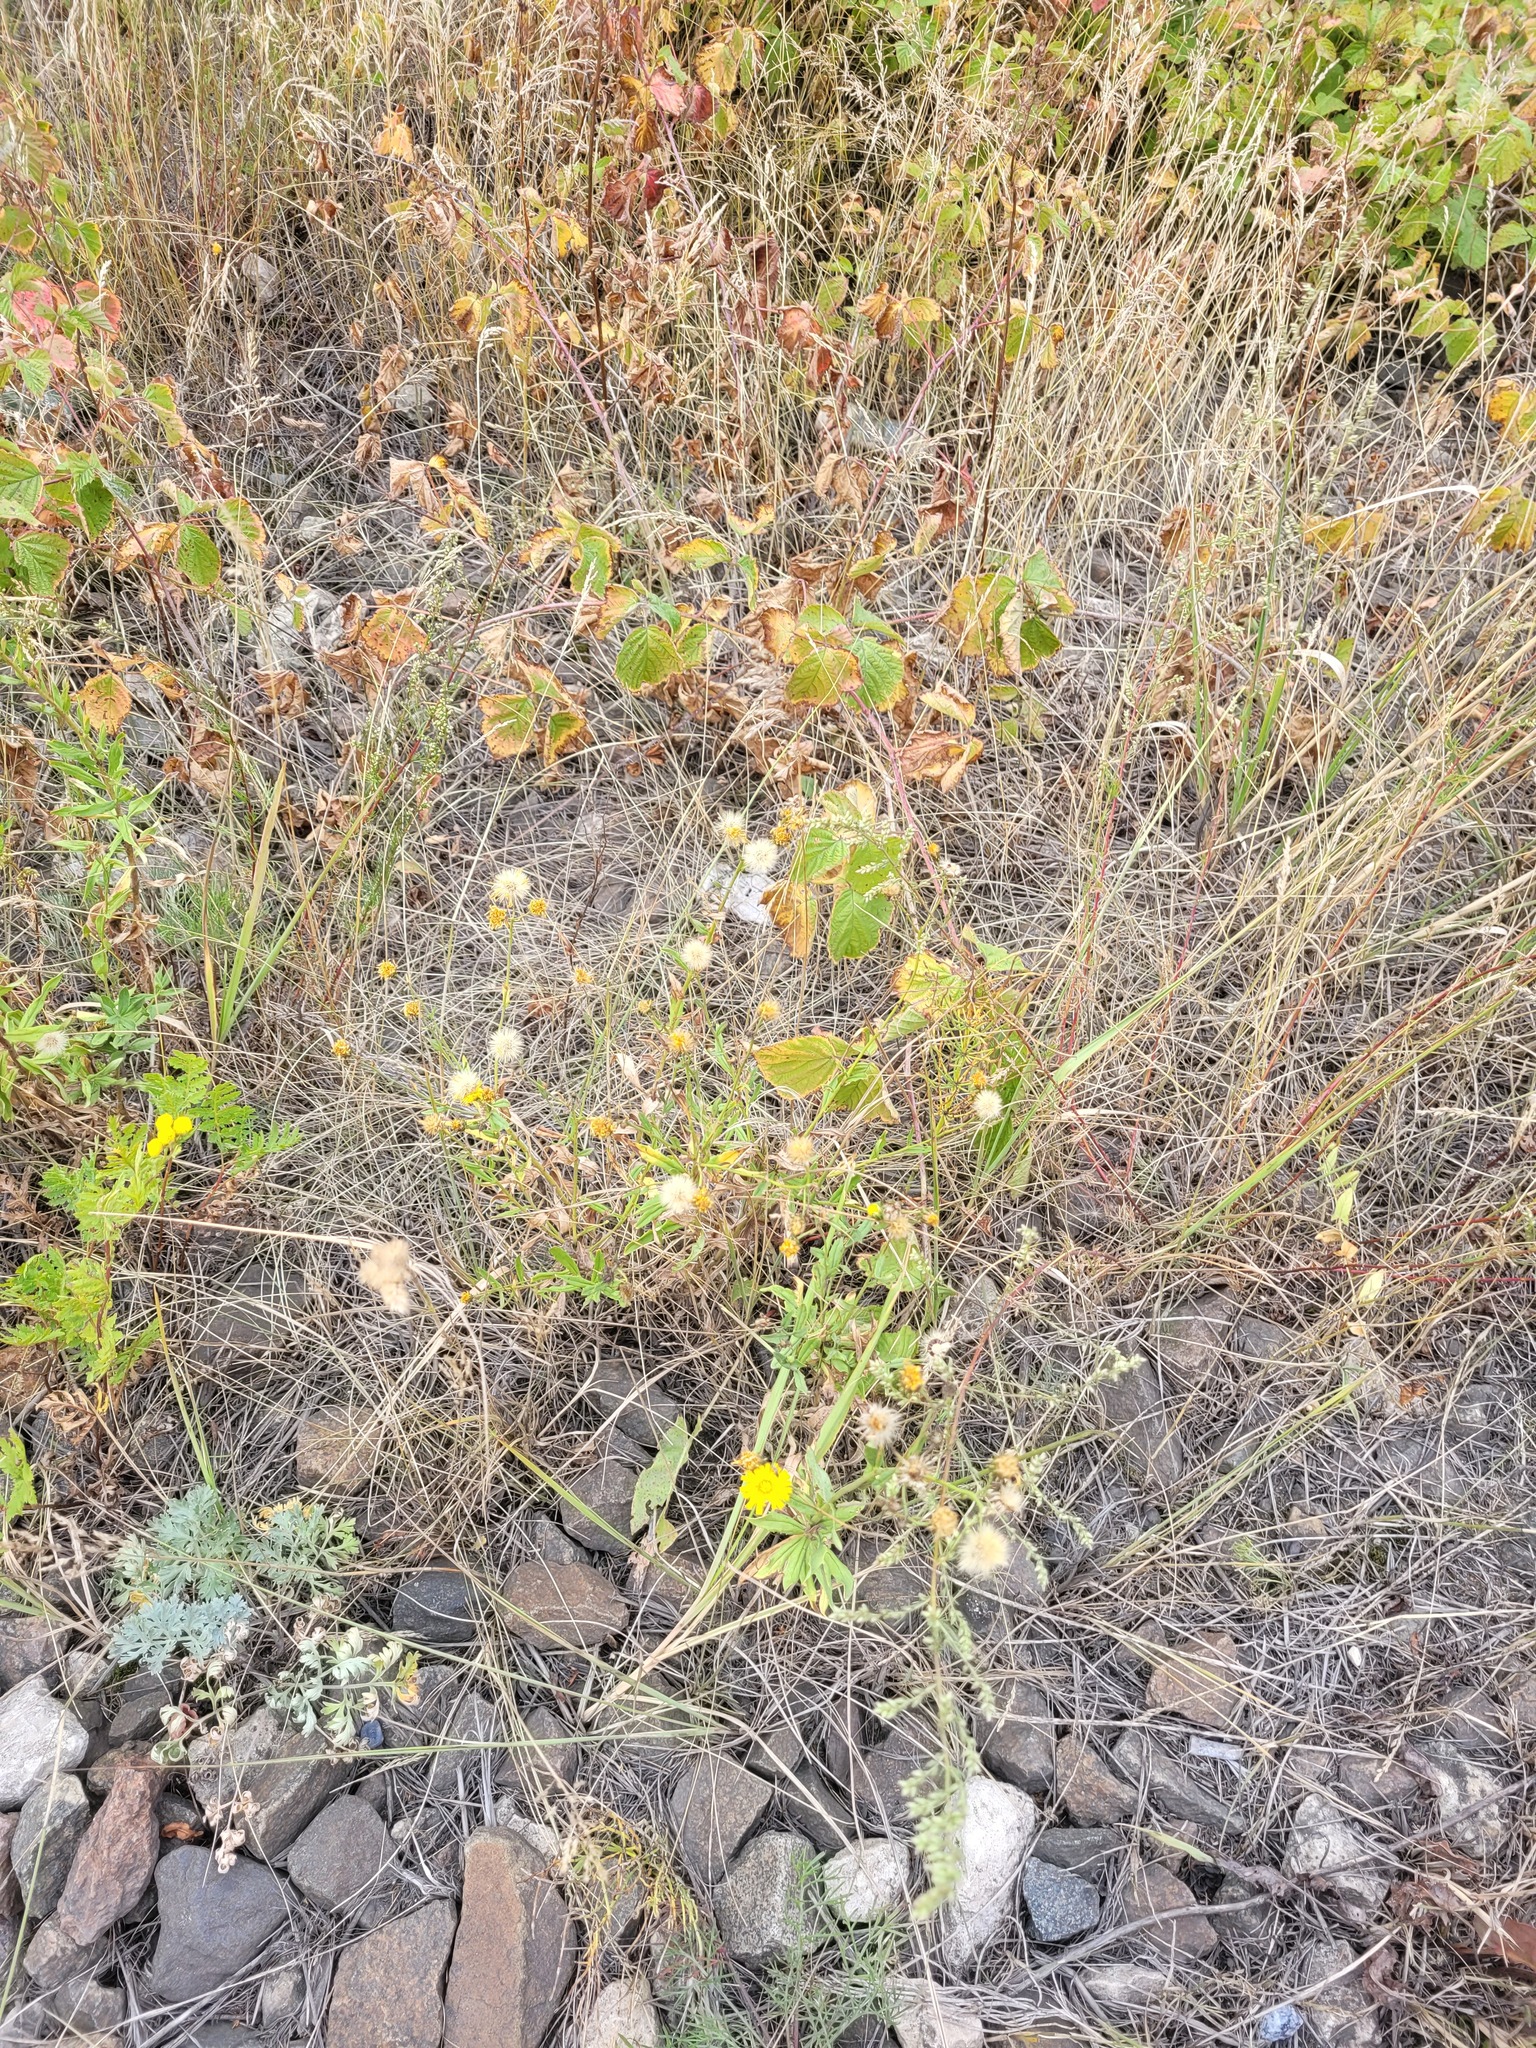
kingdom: Plantae
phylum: Tracheophyta
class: Magnoliopsida
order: Asterales
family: Asteraceae
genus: Hieracium
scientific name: Hieracium umbellatum
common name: Northern hawkweed
